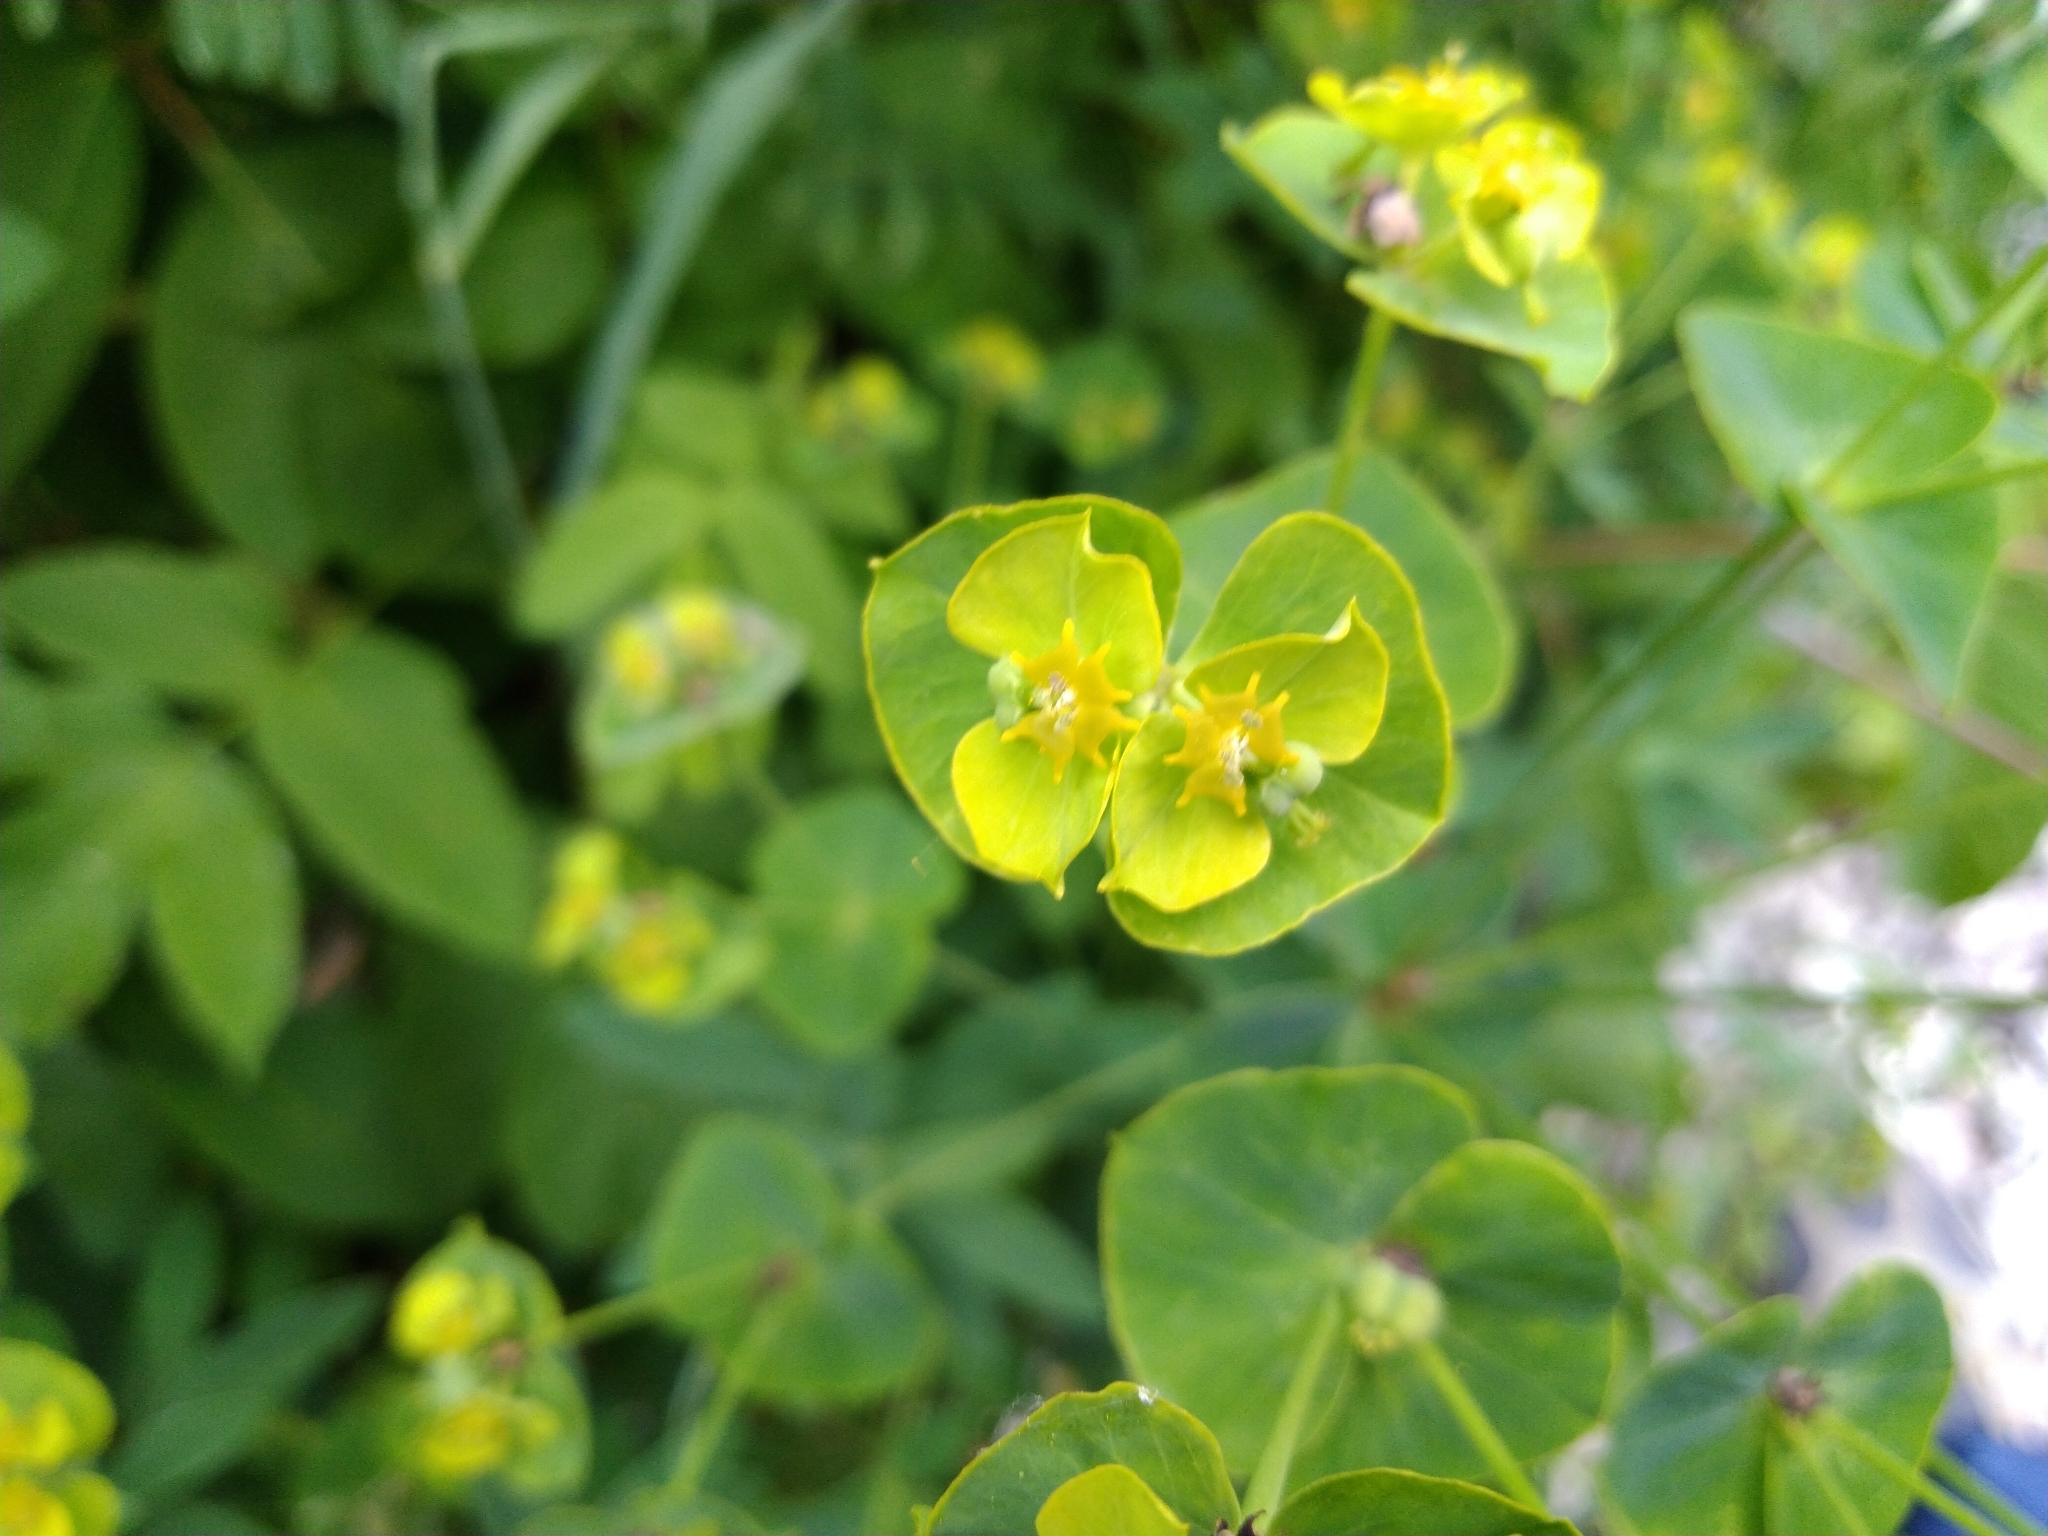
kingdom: Plantae
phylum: Tracheophyta
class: Magnoliopsida
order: Malpighiales
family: Euphorbiaceae
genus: Euphorbia
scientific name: Euphorbia virgata
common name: Leafy spurge
